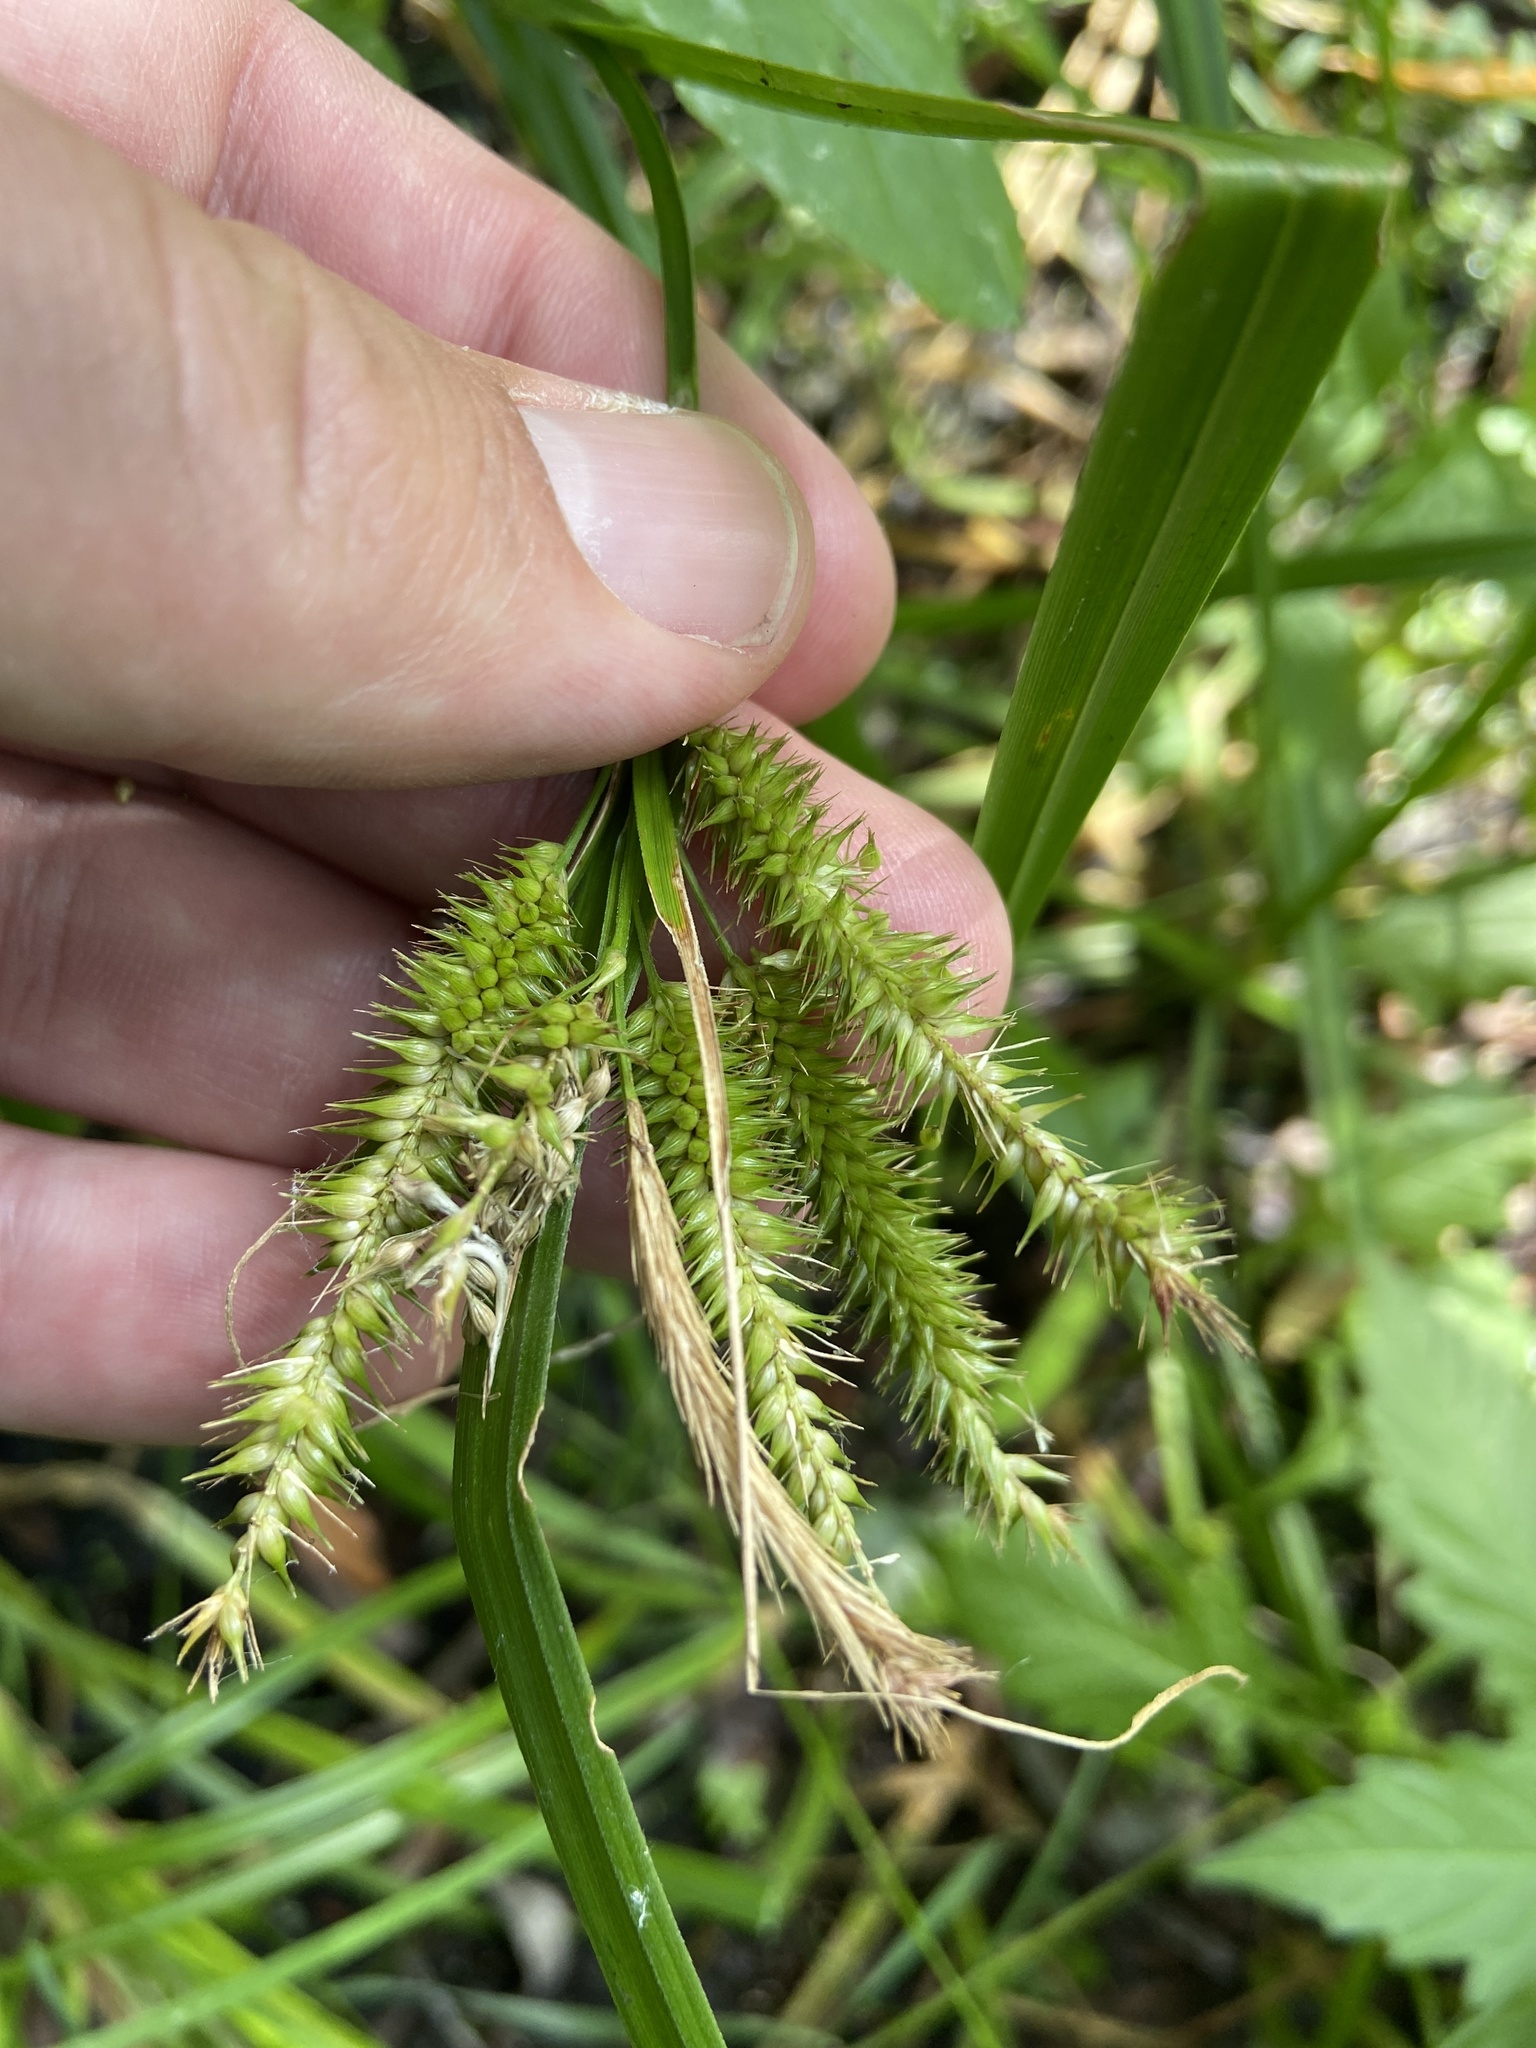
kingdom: Plantae
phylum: Tracheophyta
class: Liliopsida
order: Poales
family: Cyperaceae
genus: Carex
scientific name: Carex pseudocyperus
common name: Cyperus sedge
